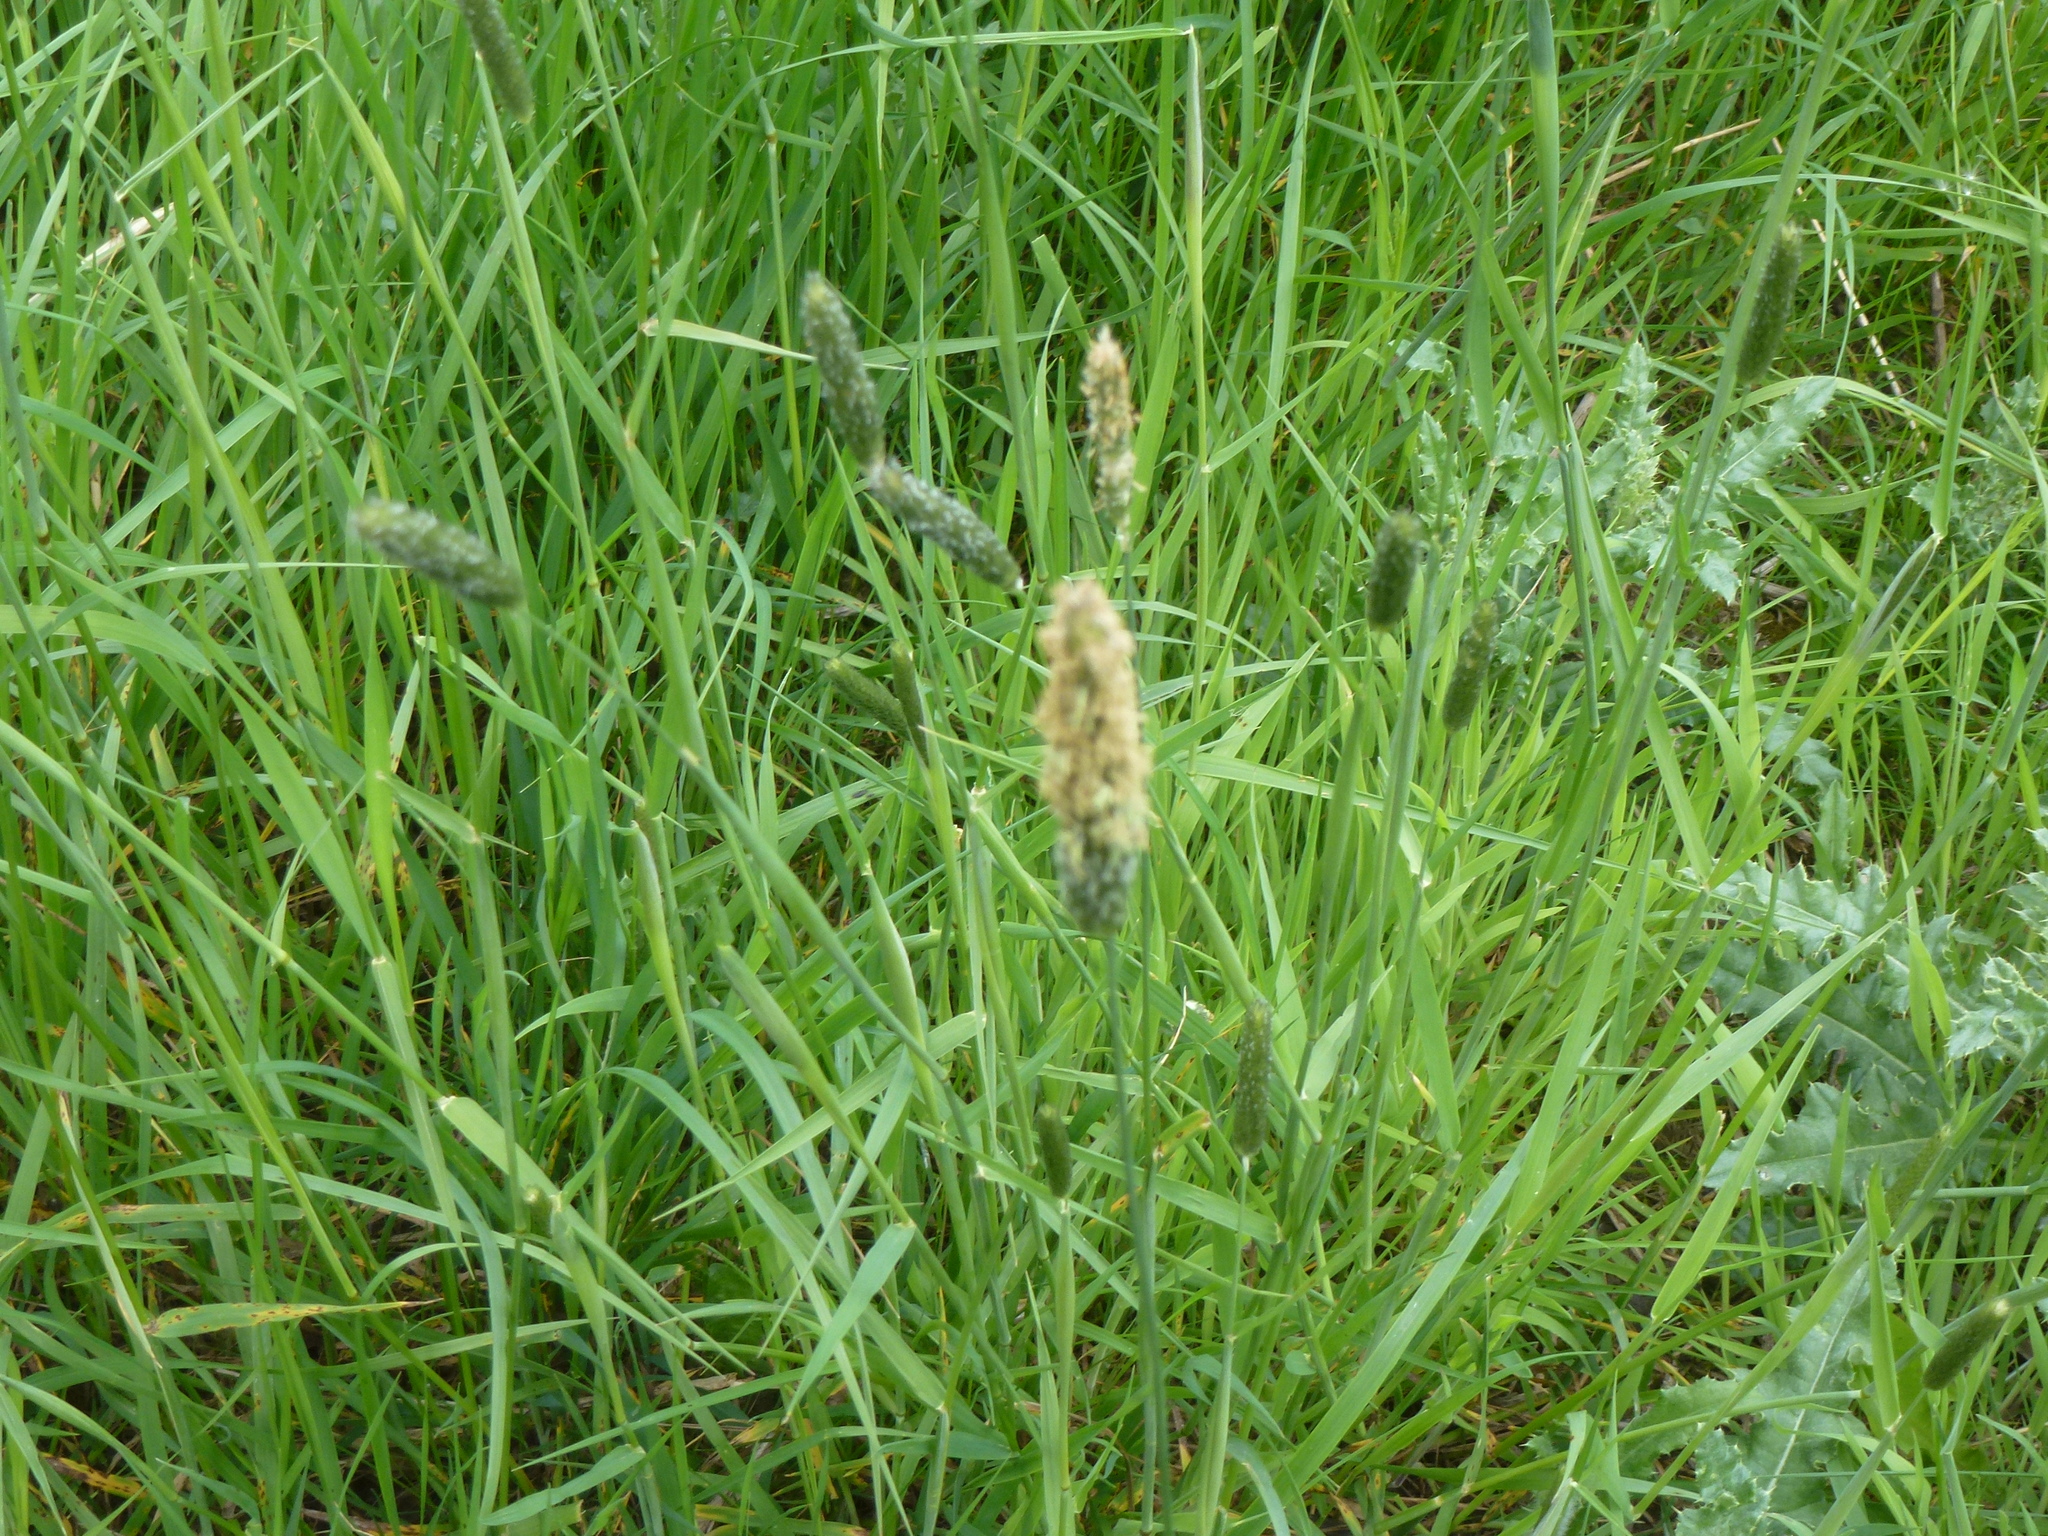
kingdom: Plantae
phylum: Tracheophyta
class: Liliopsida
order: Poales
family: Poaceae
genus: Alopecurus
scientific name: Alopecurus pratensis
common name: Meadow foxtail
